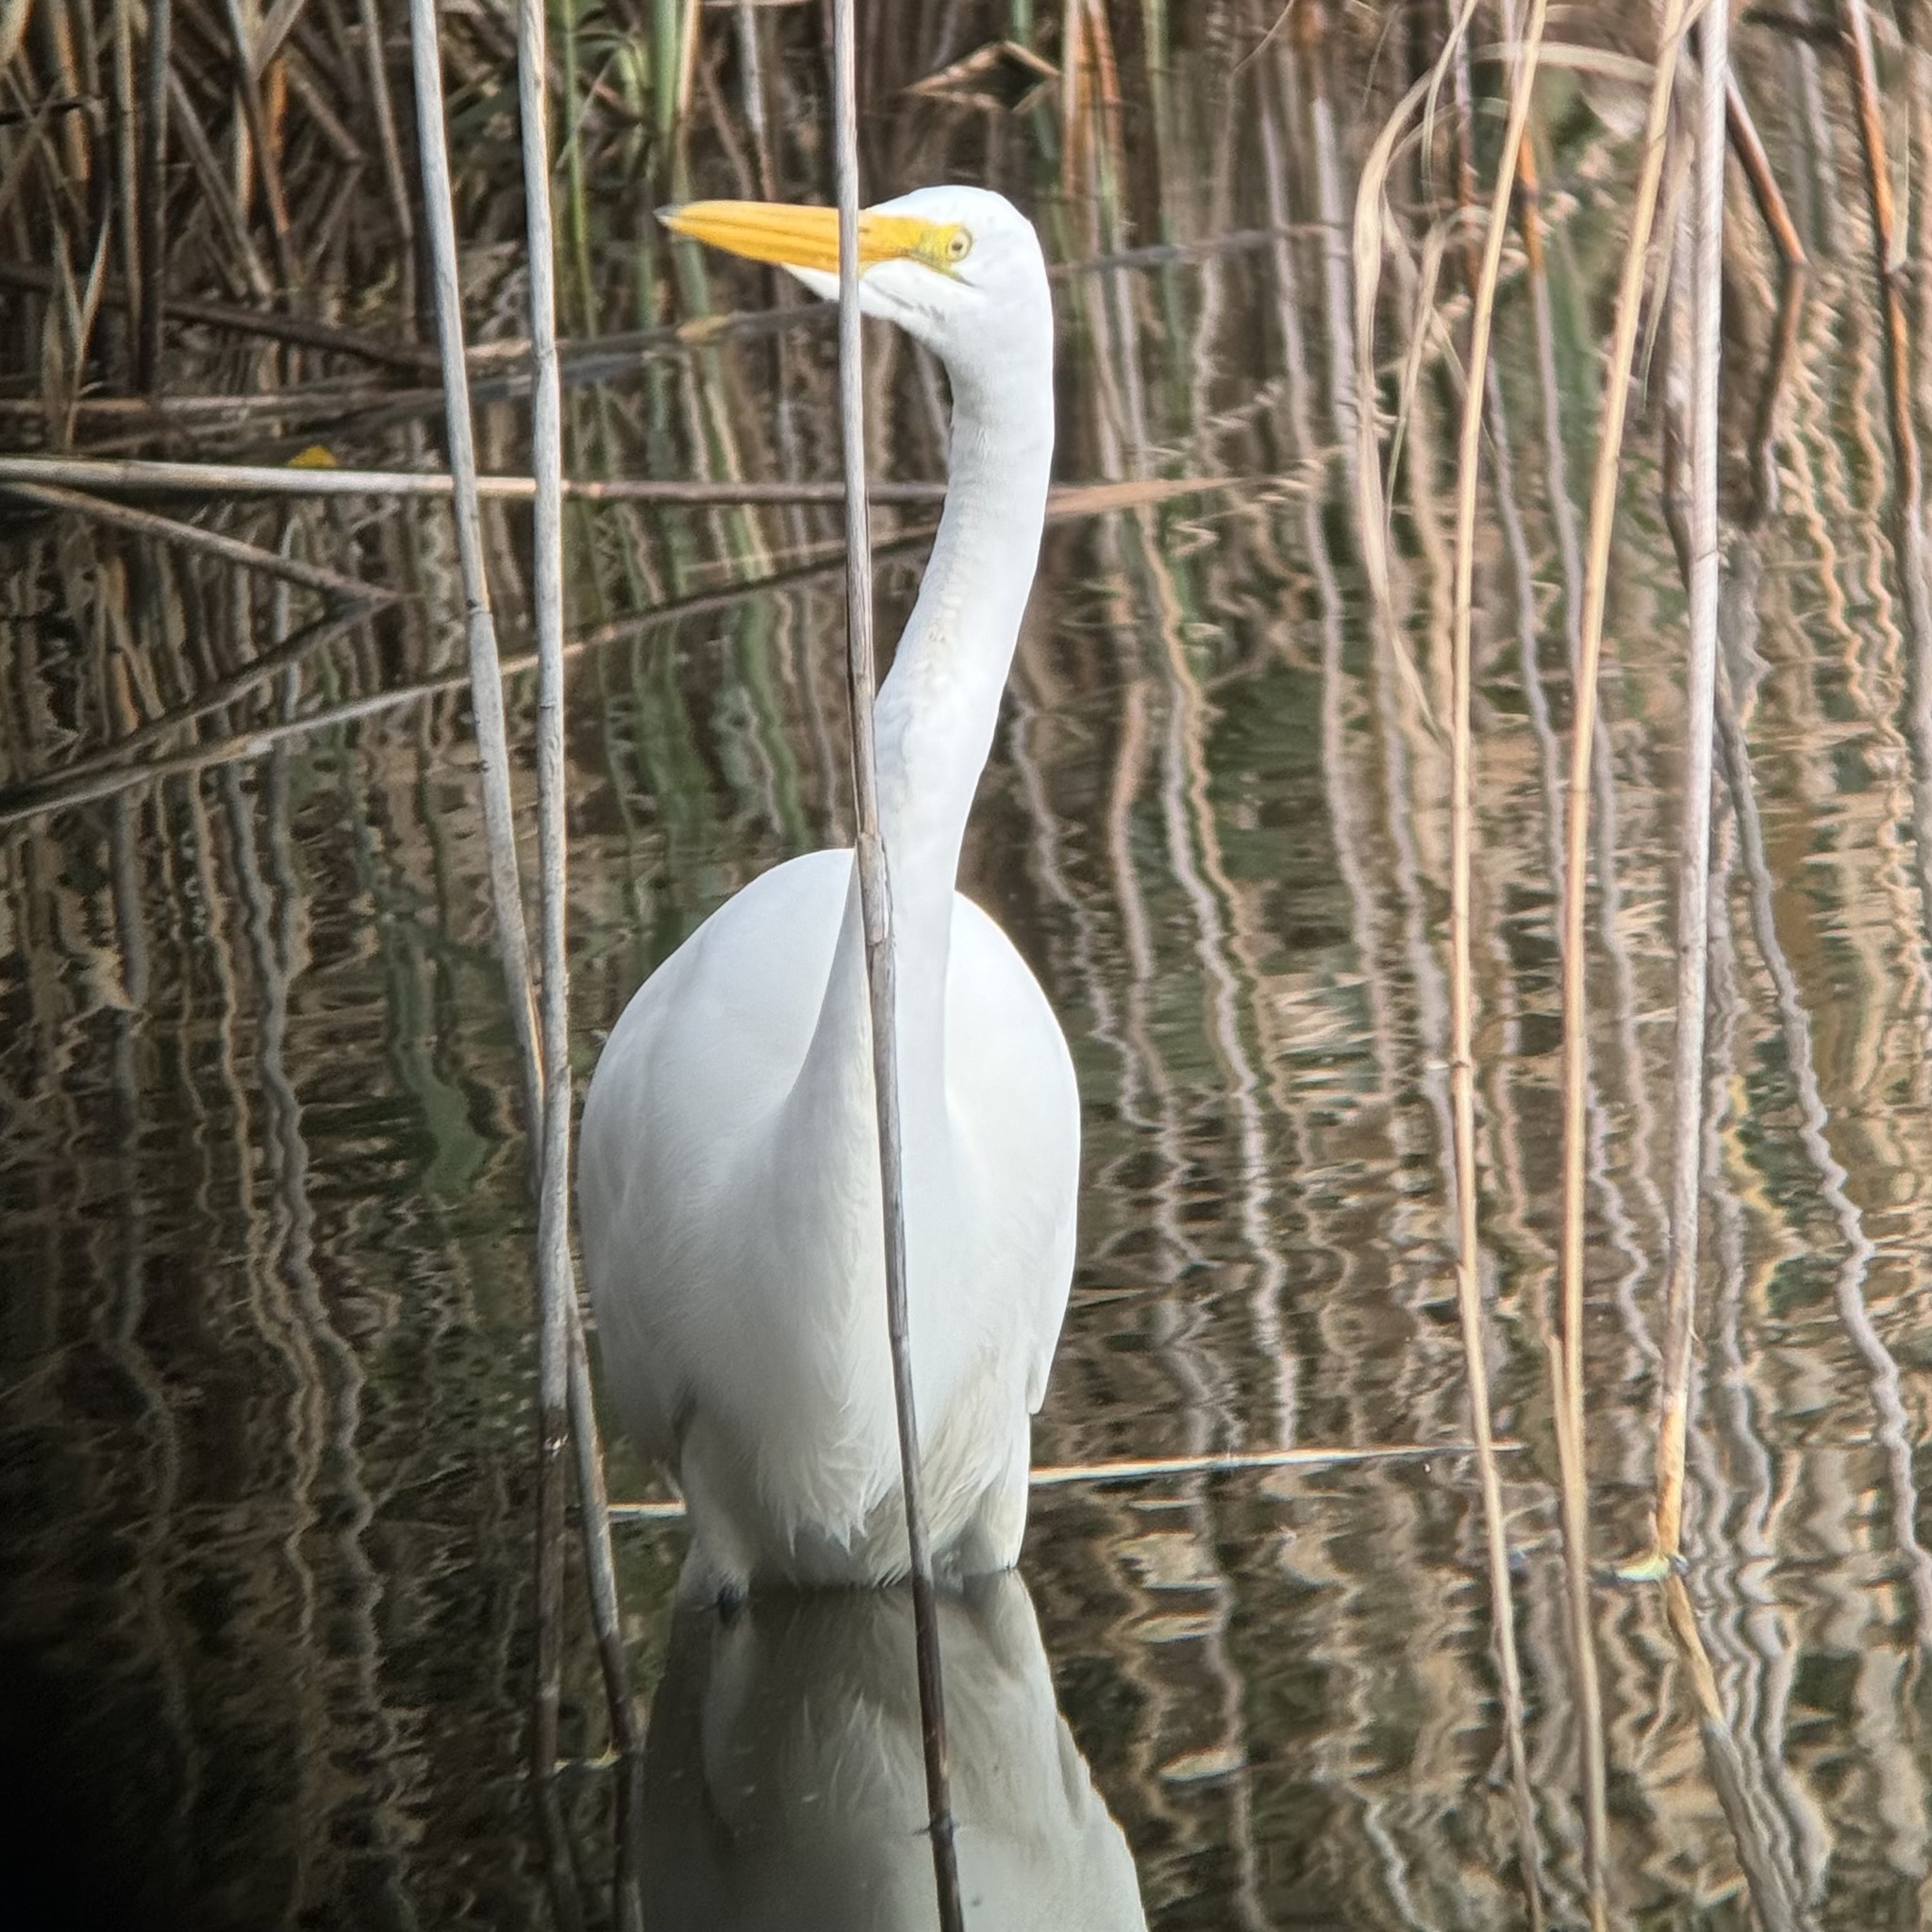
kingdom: Animalia
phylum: Chordata
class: Aves
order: Pelecaniformes
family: Ardeidae
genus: Ardea
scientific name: Ardea alba
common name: Great egret
